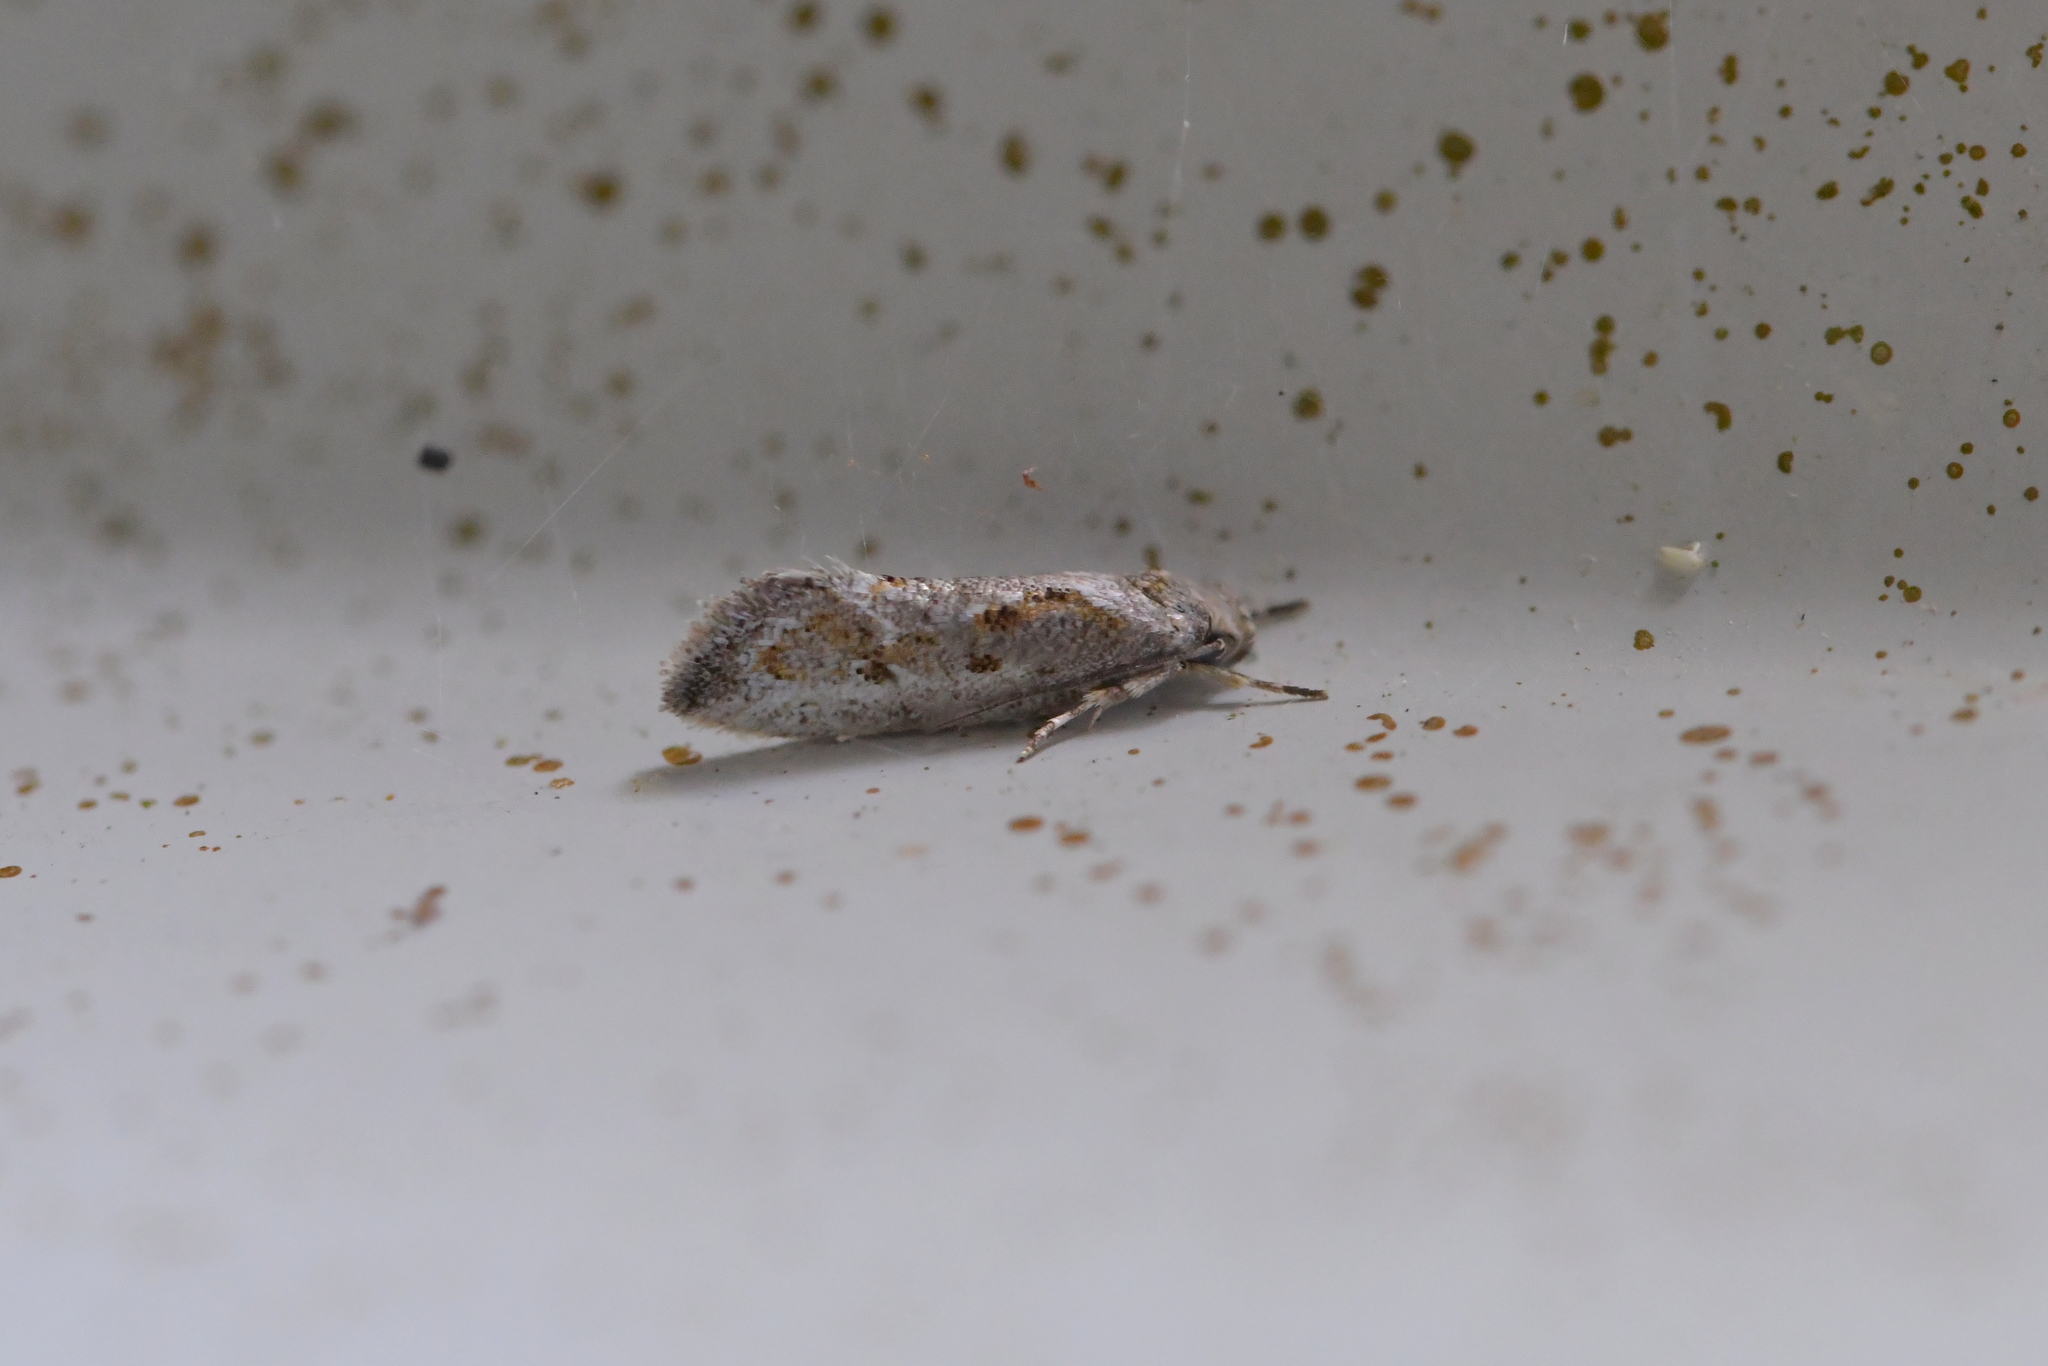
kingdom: Animalia
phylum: Arthropoda
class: Insecta
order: Lepidoptera
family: Oecophoridae
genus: Tingena
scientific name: Tingena hemimochla
